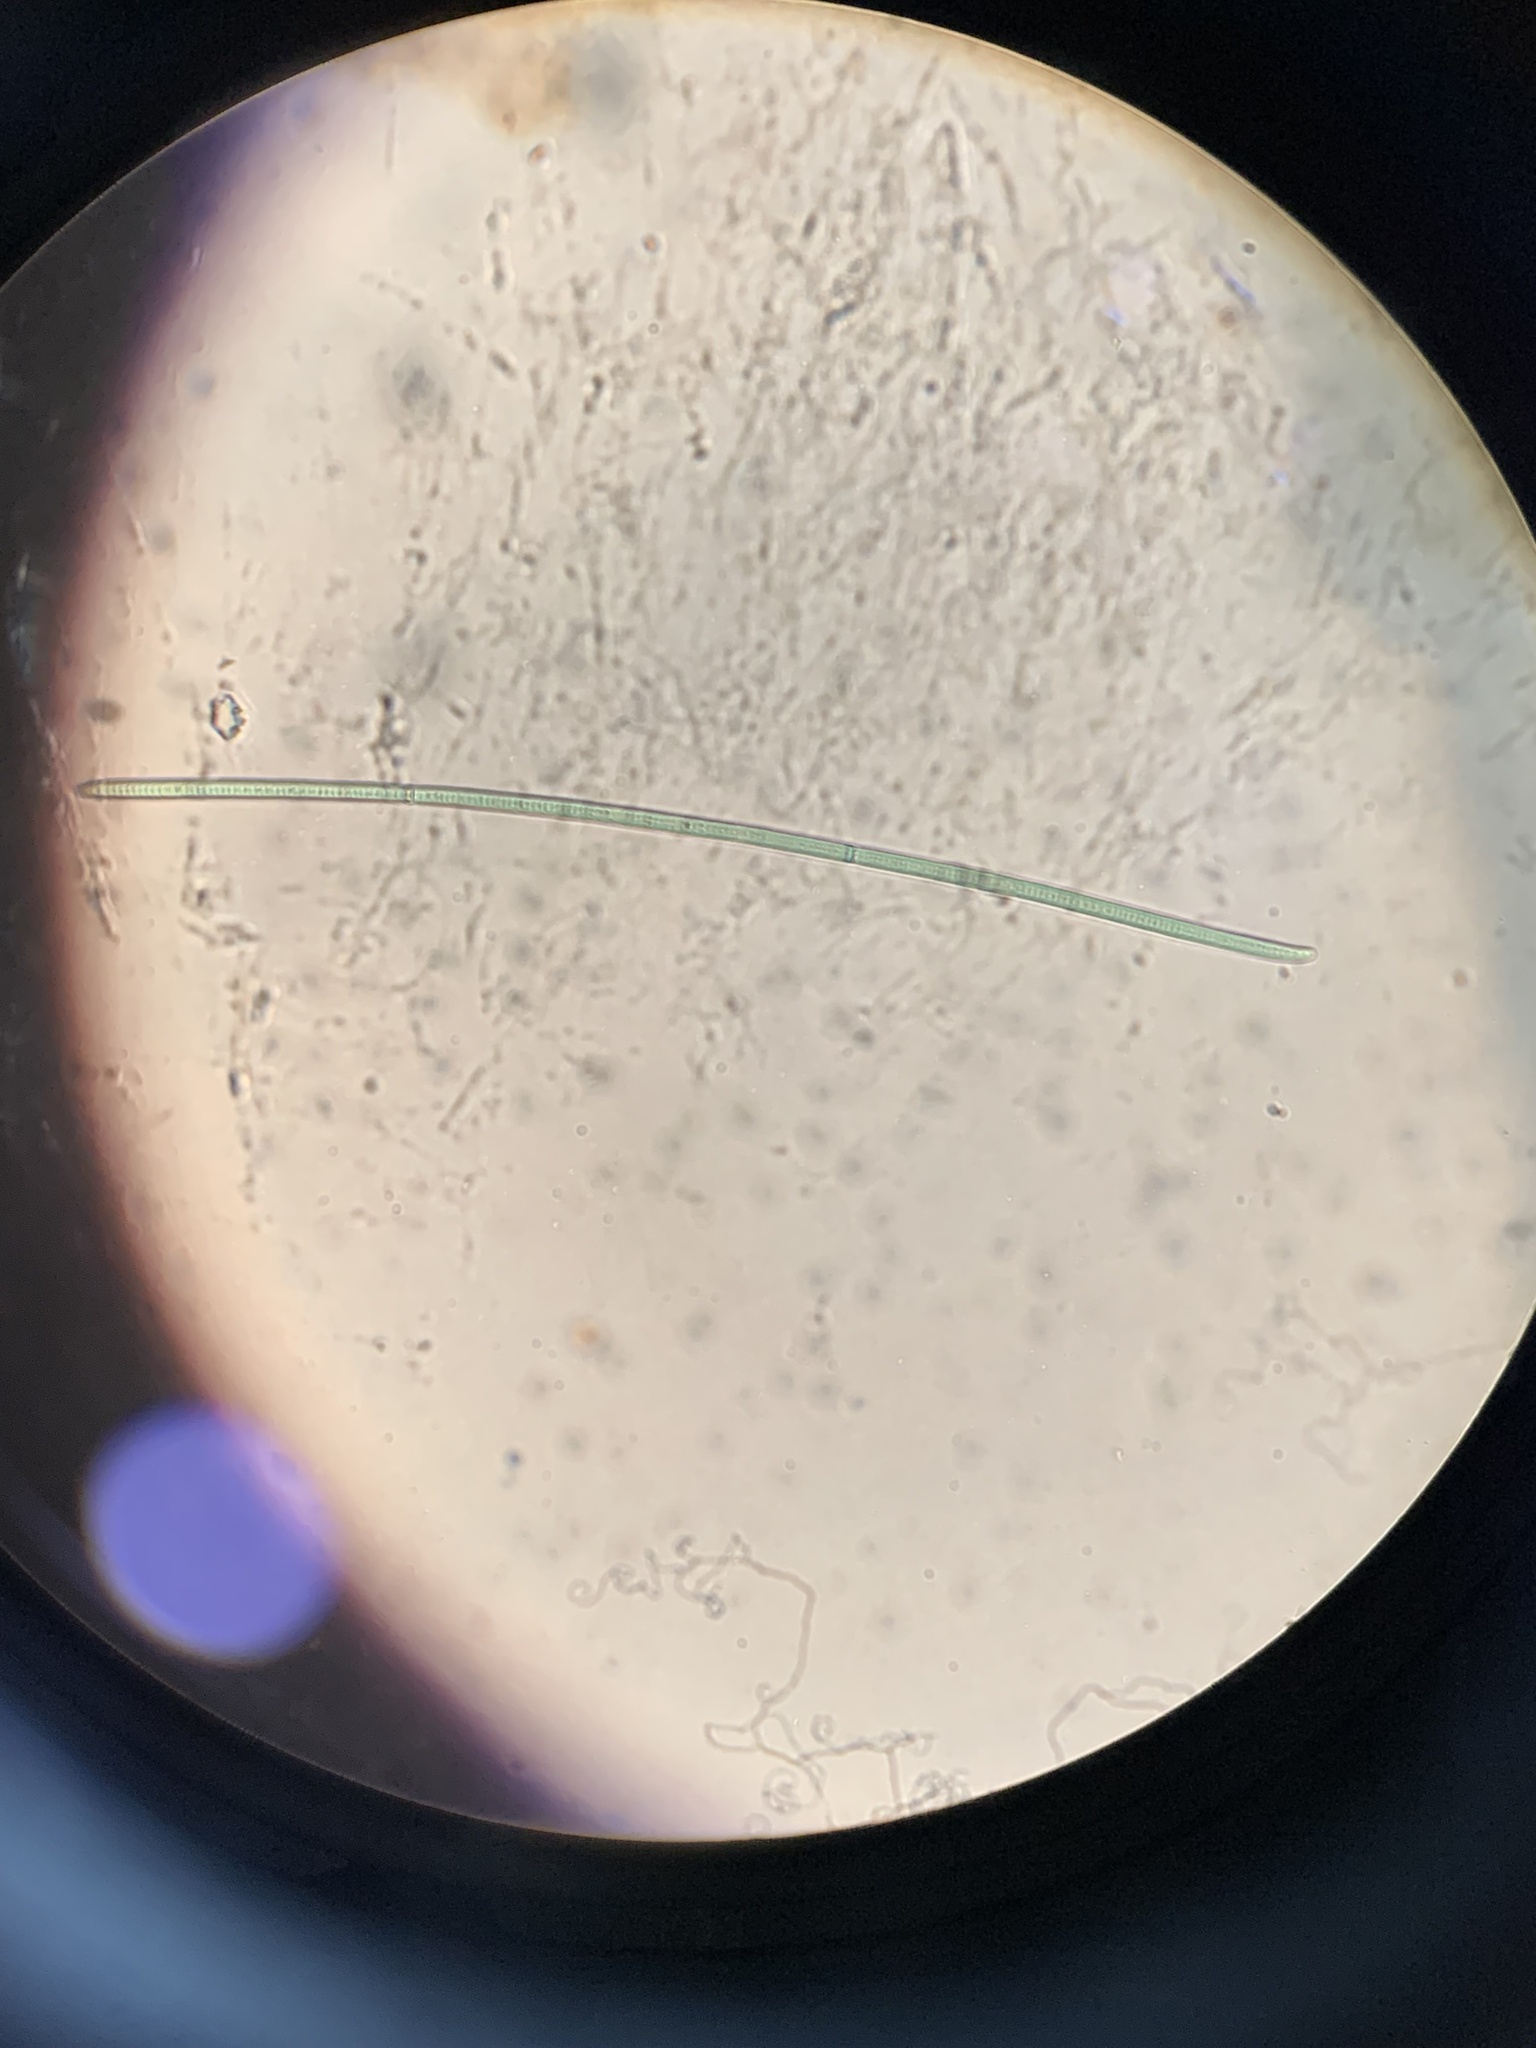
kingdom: Bacteria
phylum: Cyanobacteria
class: Cyanobacteriia
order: Cyanobacteriales
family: Oscillatoriaceae
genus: Phormidium
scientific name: Phormidium tergestinum
